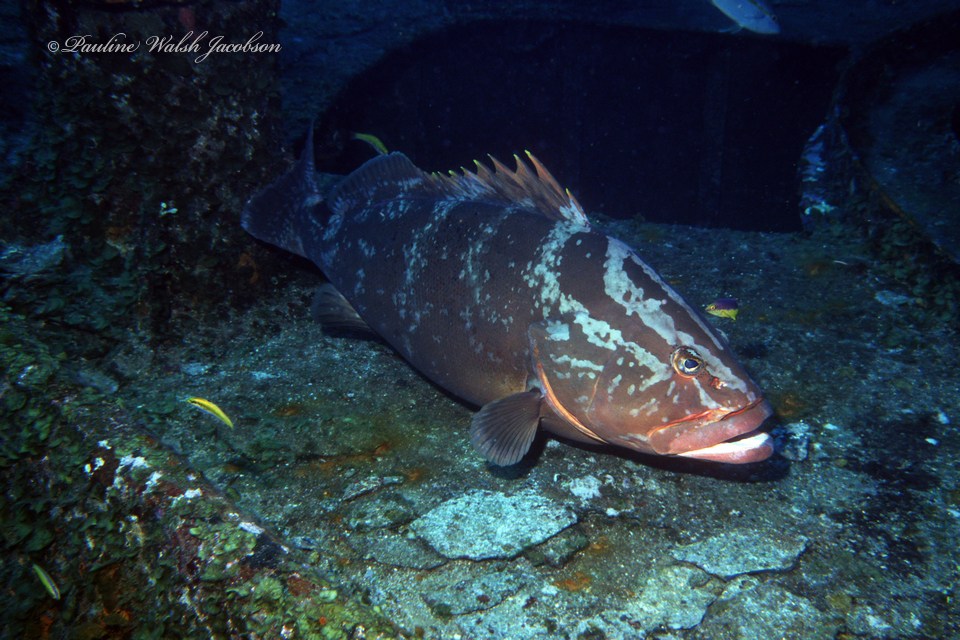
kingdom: Animalia
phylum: Chordata
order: Perciformes
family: Serranidae
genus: Epinephelus
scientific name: Epinephelus striatus
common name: Nassau grouper
